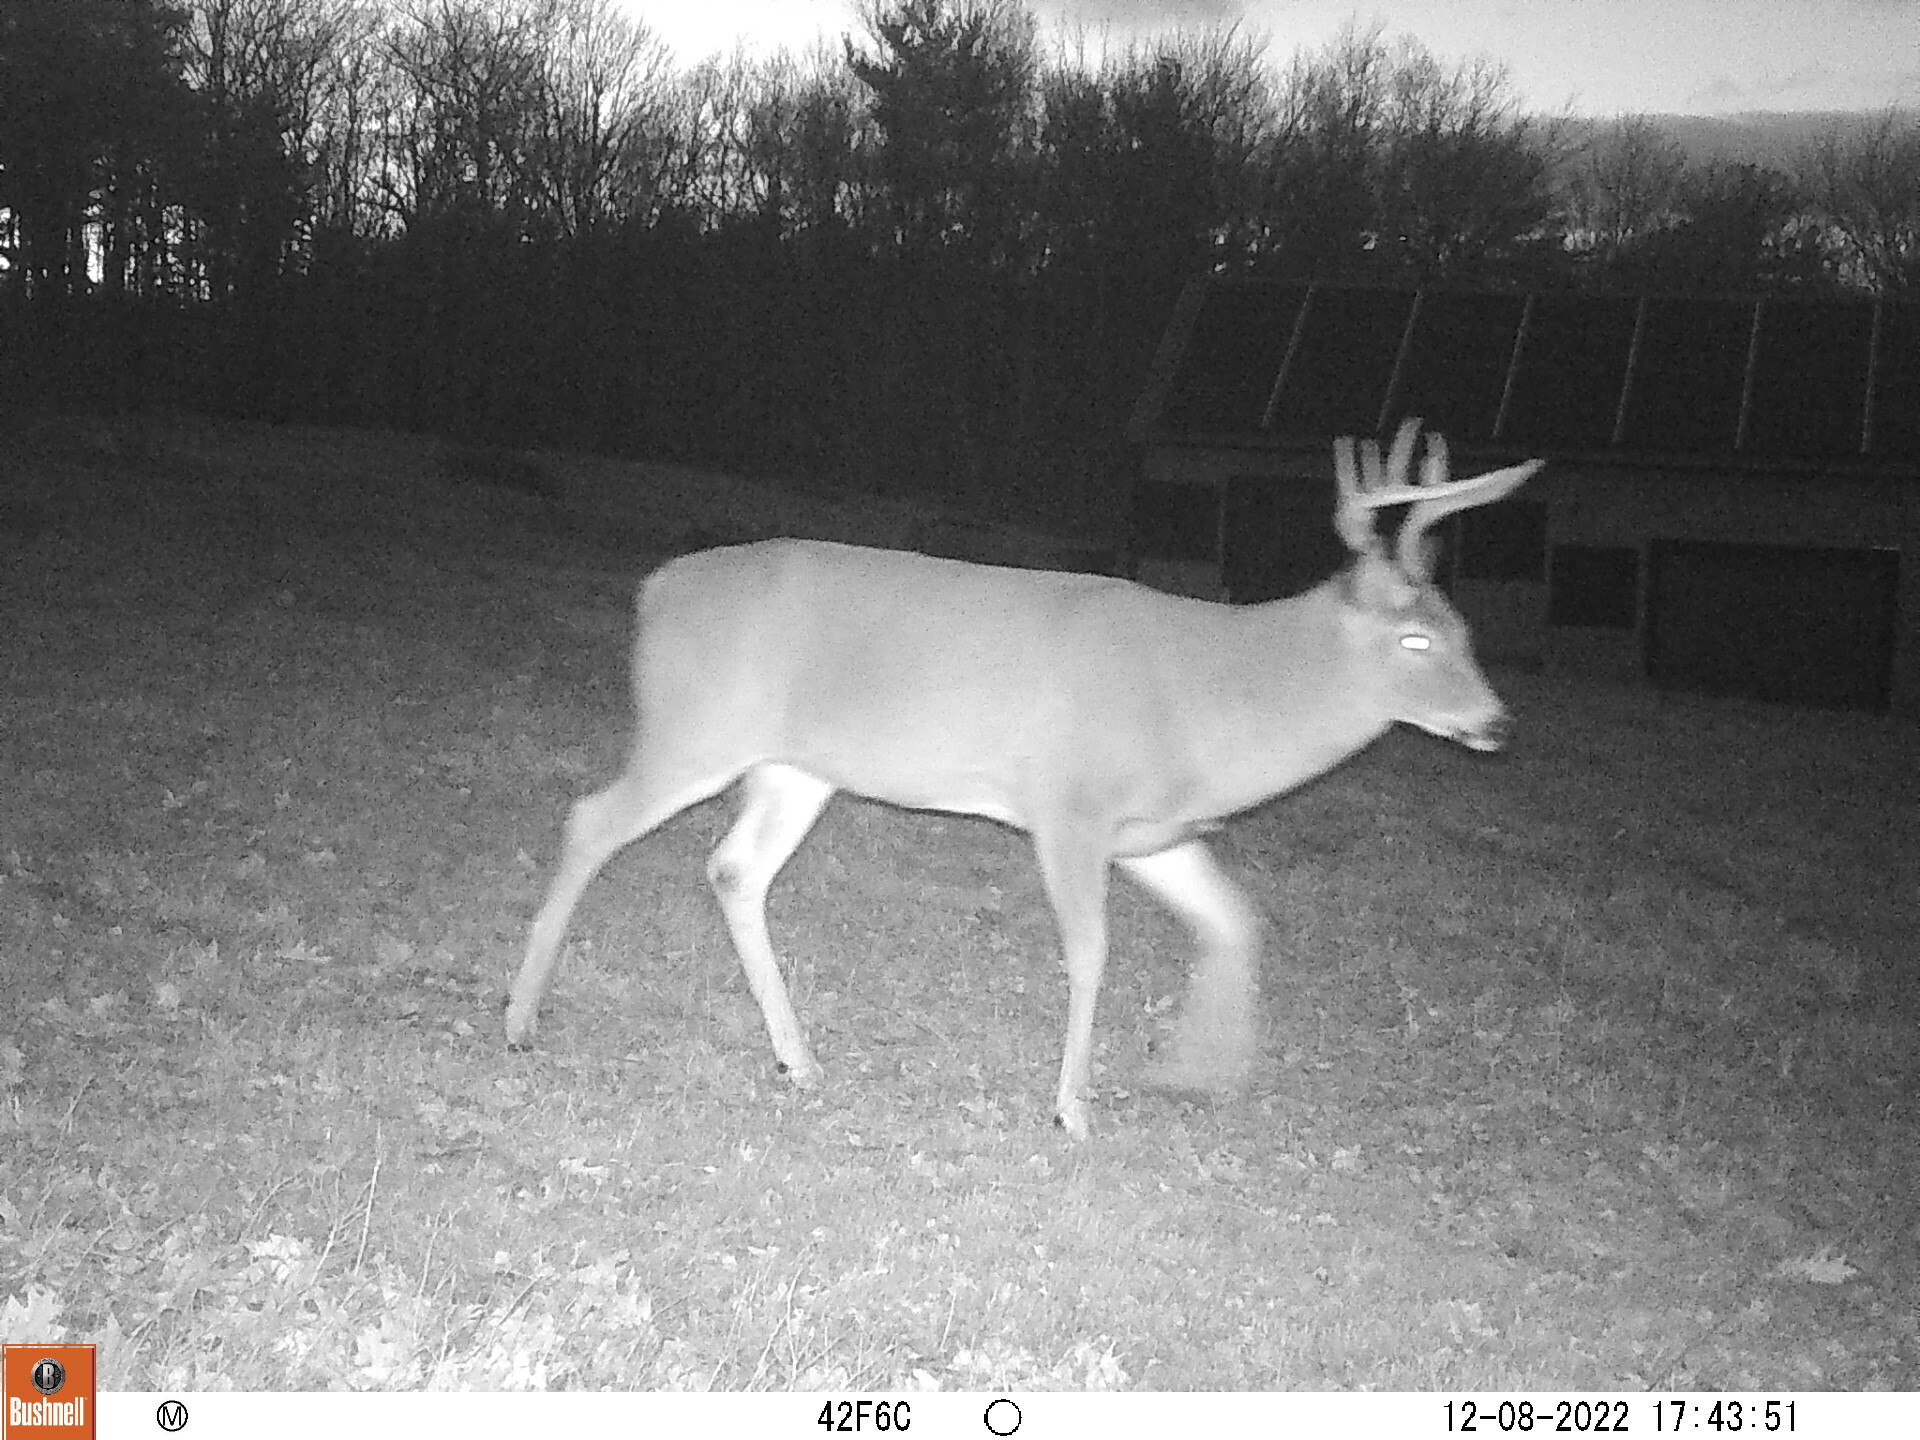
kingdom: Animalia
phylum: Chordata
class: Mammalia
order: Artiodactyla
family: Cervidae
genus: Odocoileus
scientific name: Odocoileus virginianus
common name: White-tailed deer
